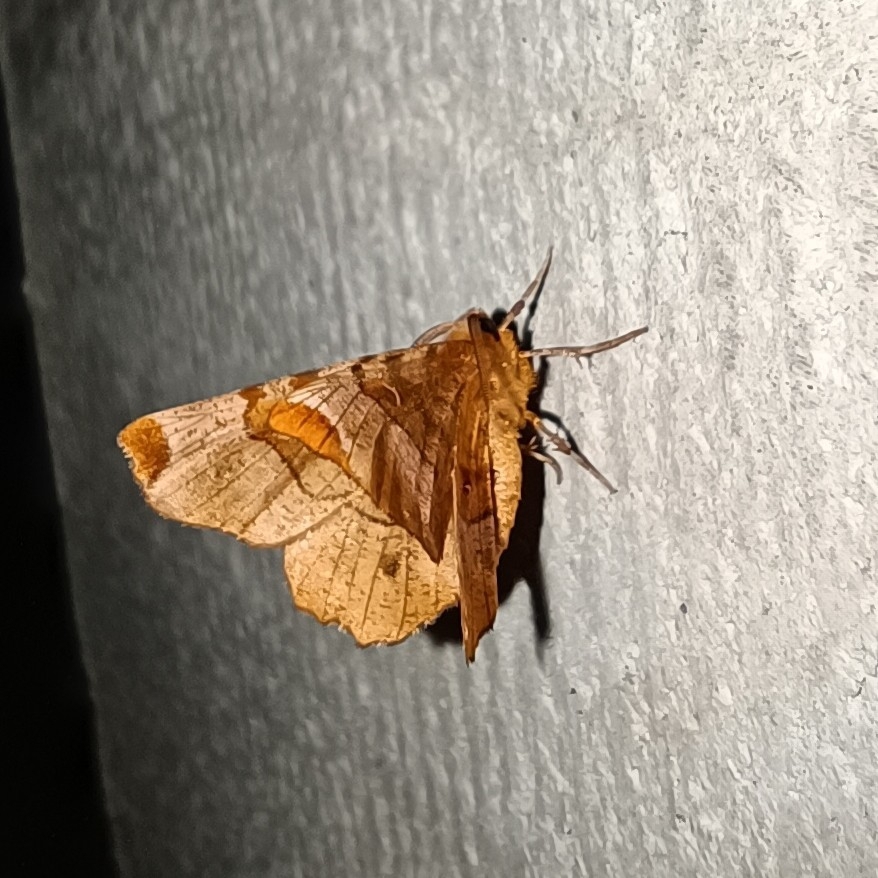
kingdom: Animalia
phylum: Arthropoda
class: Insecta
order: Lepidoptera
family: Geometridae
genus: Selenia
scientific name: Selenia tetralunaria
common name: Purple thorn
